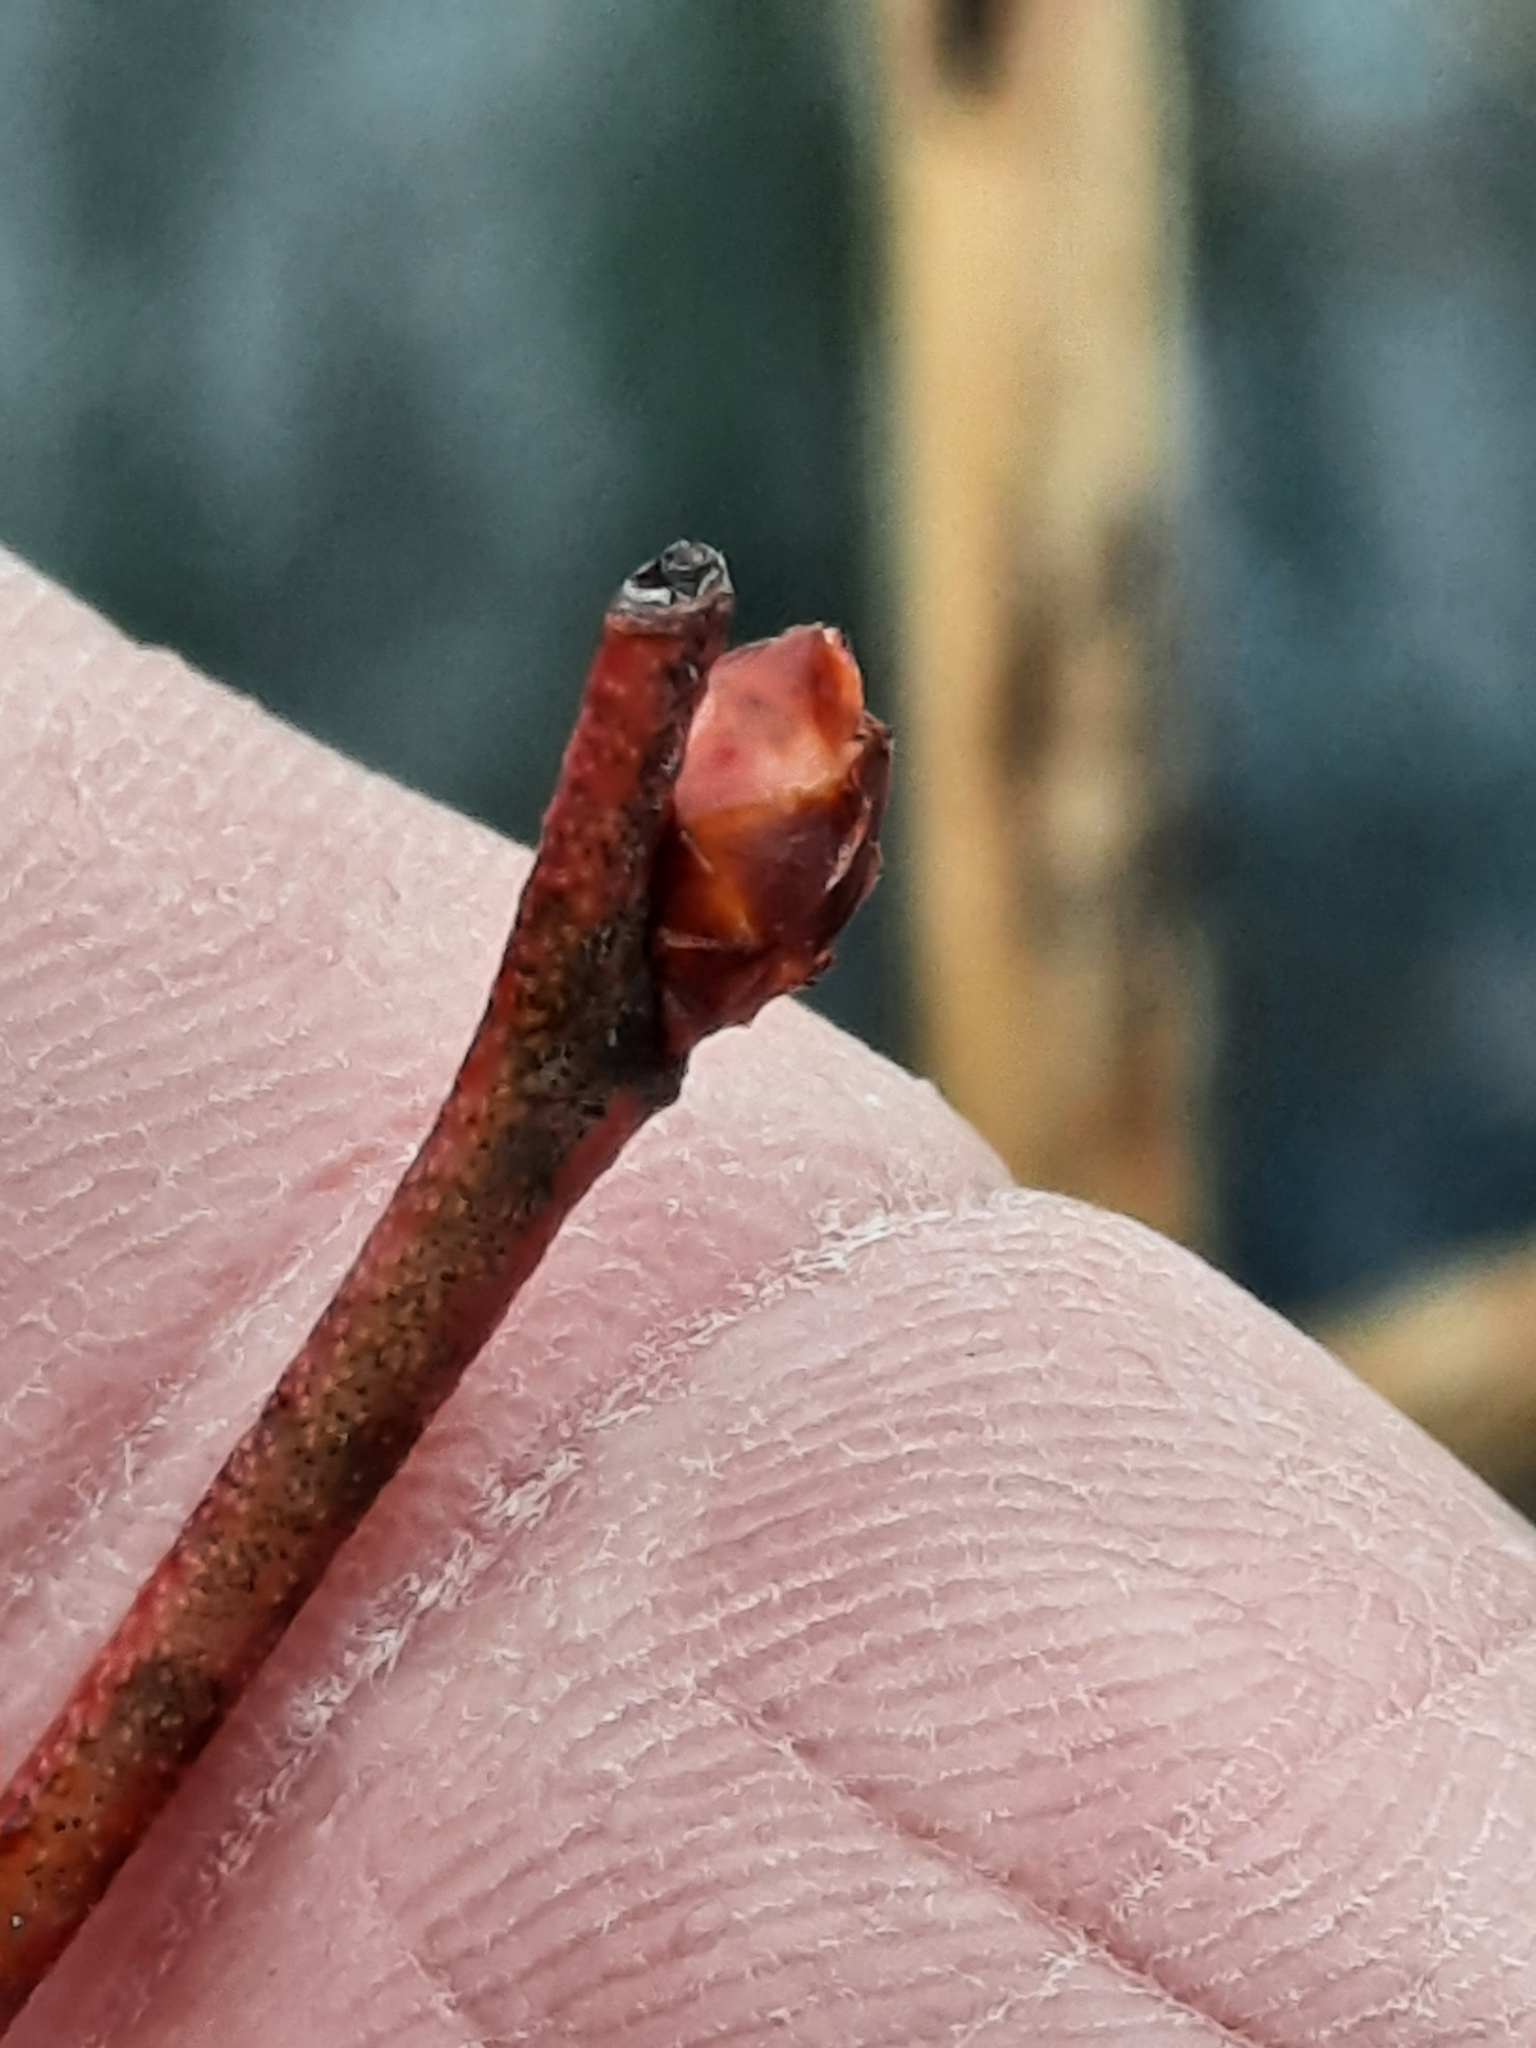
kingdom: Plantae
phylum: Tracheophyta
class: Magnoliopsida
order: Ericales
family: Ericaceae
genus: Vaccinium
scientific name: Vaccinium corymbosum
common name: Blueberry
